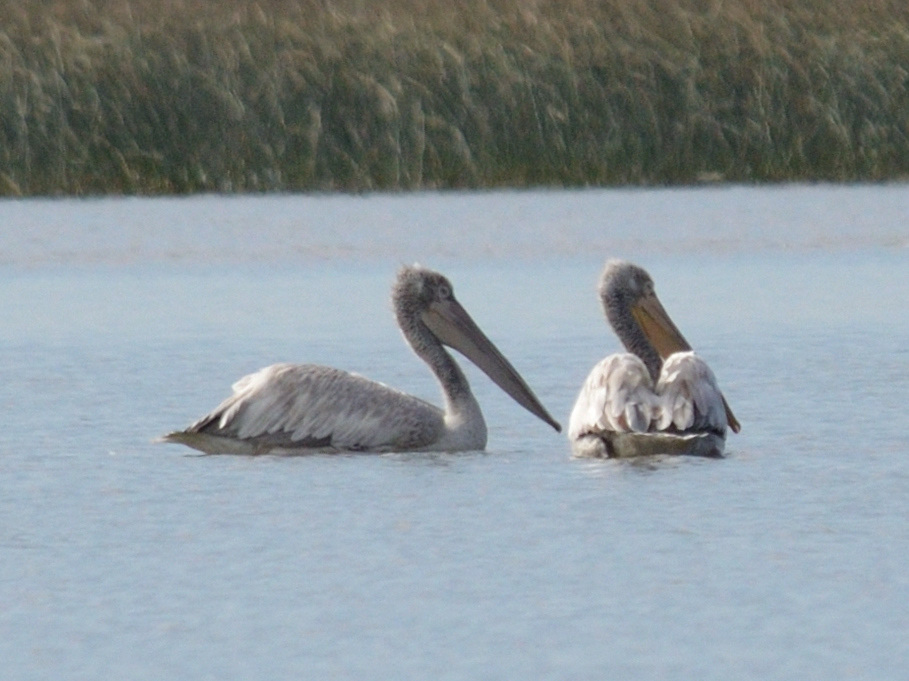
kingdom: Animalia
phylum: Chordata
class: Aves
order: Pelecaniformes
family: Pelecanidae
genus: Pelecanus
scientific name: Pelecanus crispus
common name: Dalmatian pelican
